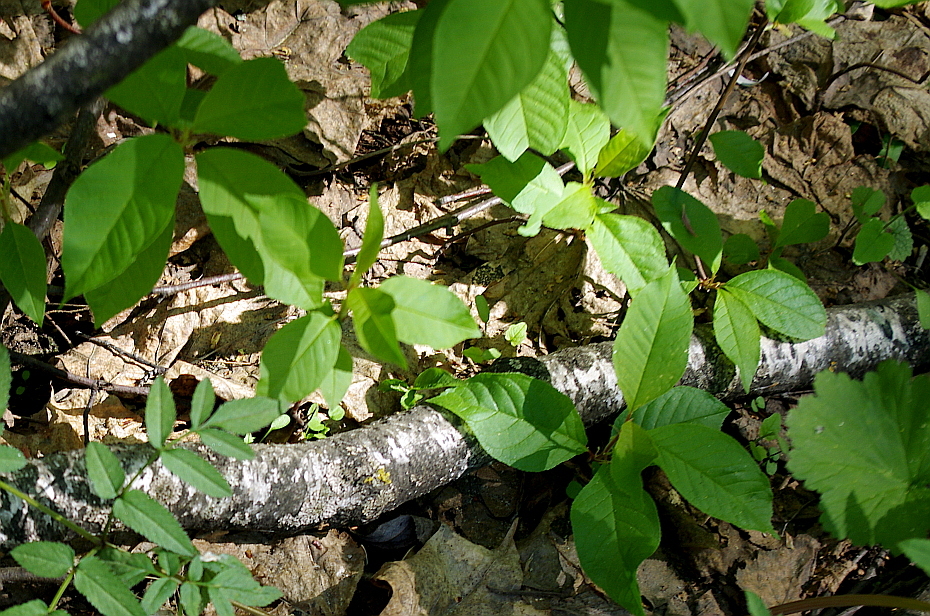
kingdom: Plantae
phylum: Tracheophyta
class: Magnoliopsida
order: Rosales
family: Rosaceae
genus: Prunus
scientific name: Prunus padus
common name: Bird cherry
